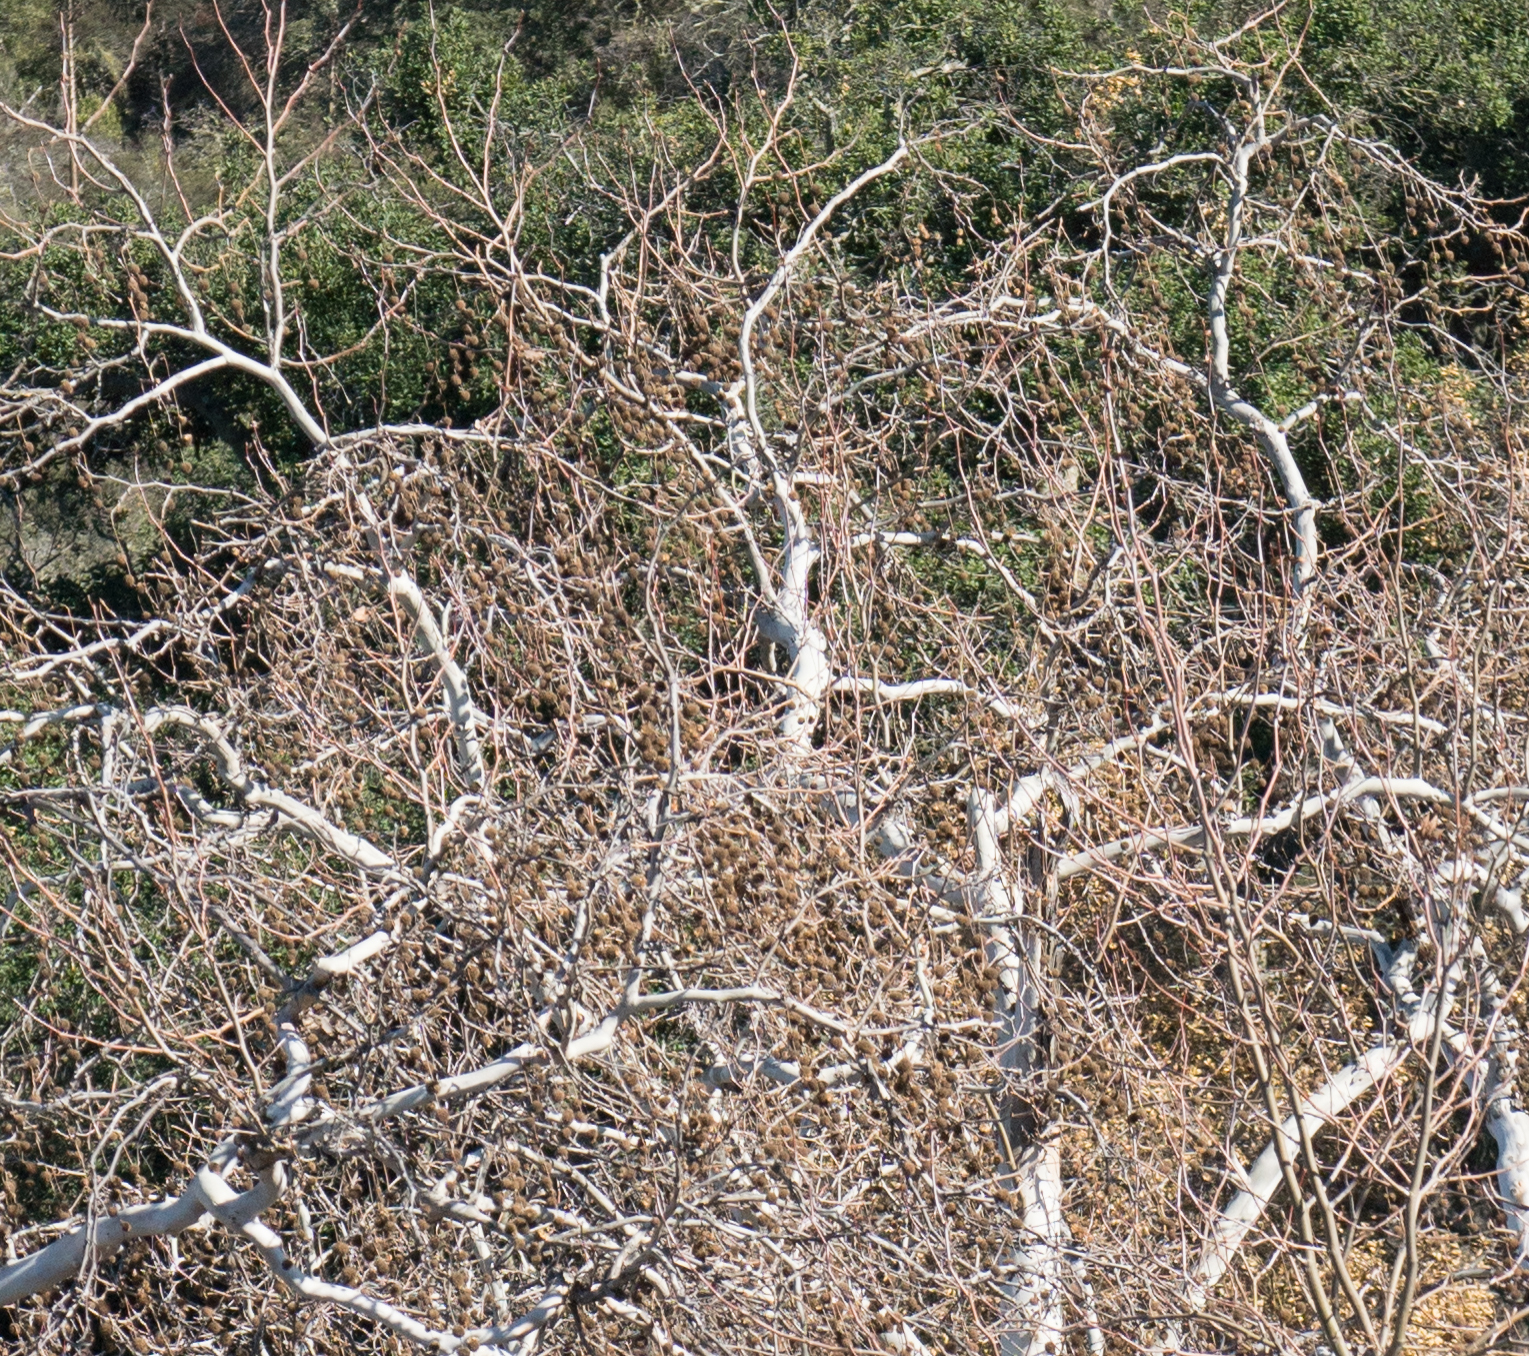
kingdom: Plantae
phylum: Tracheophyta
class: Magnoliopsida
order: Proteales
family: Platanaceae
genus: Platanus
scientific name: Platanus racemosa
